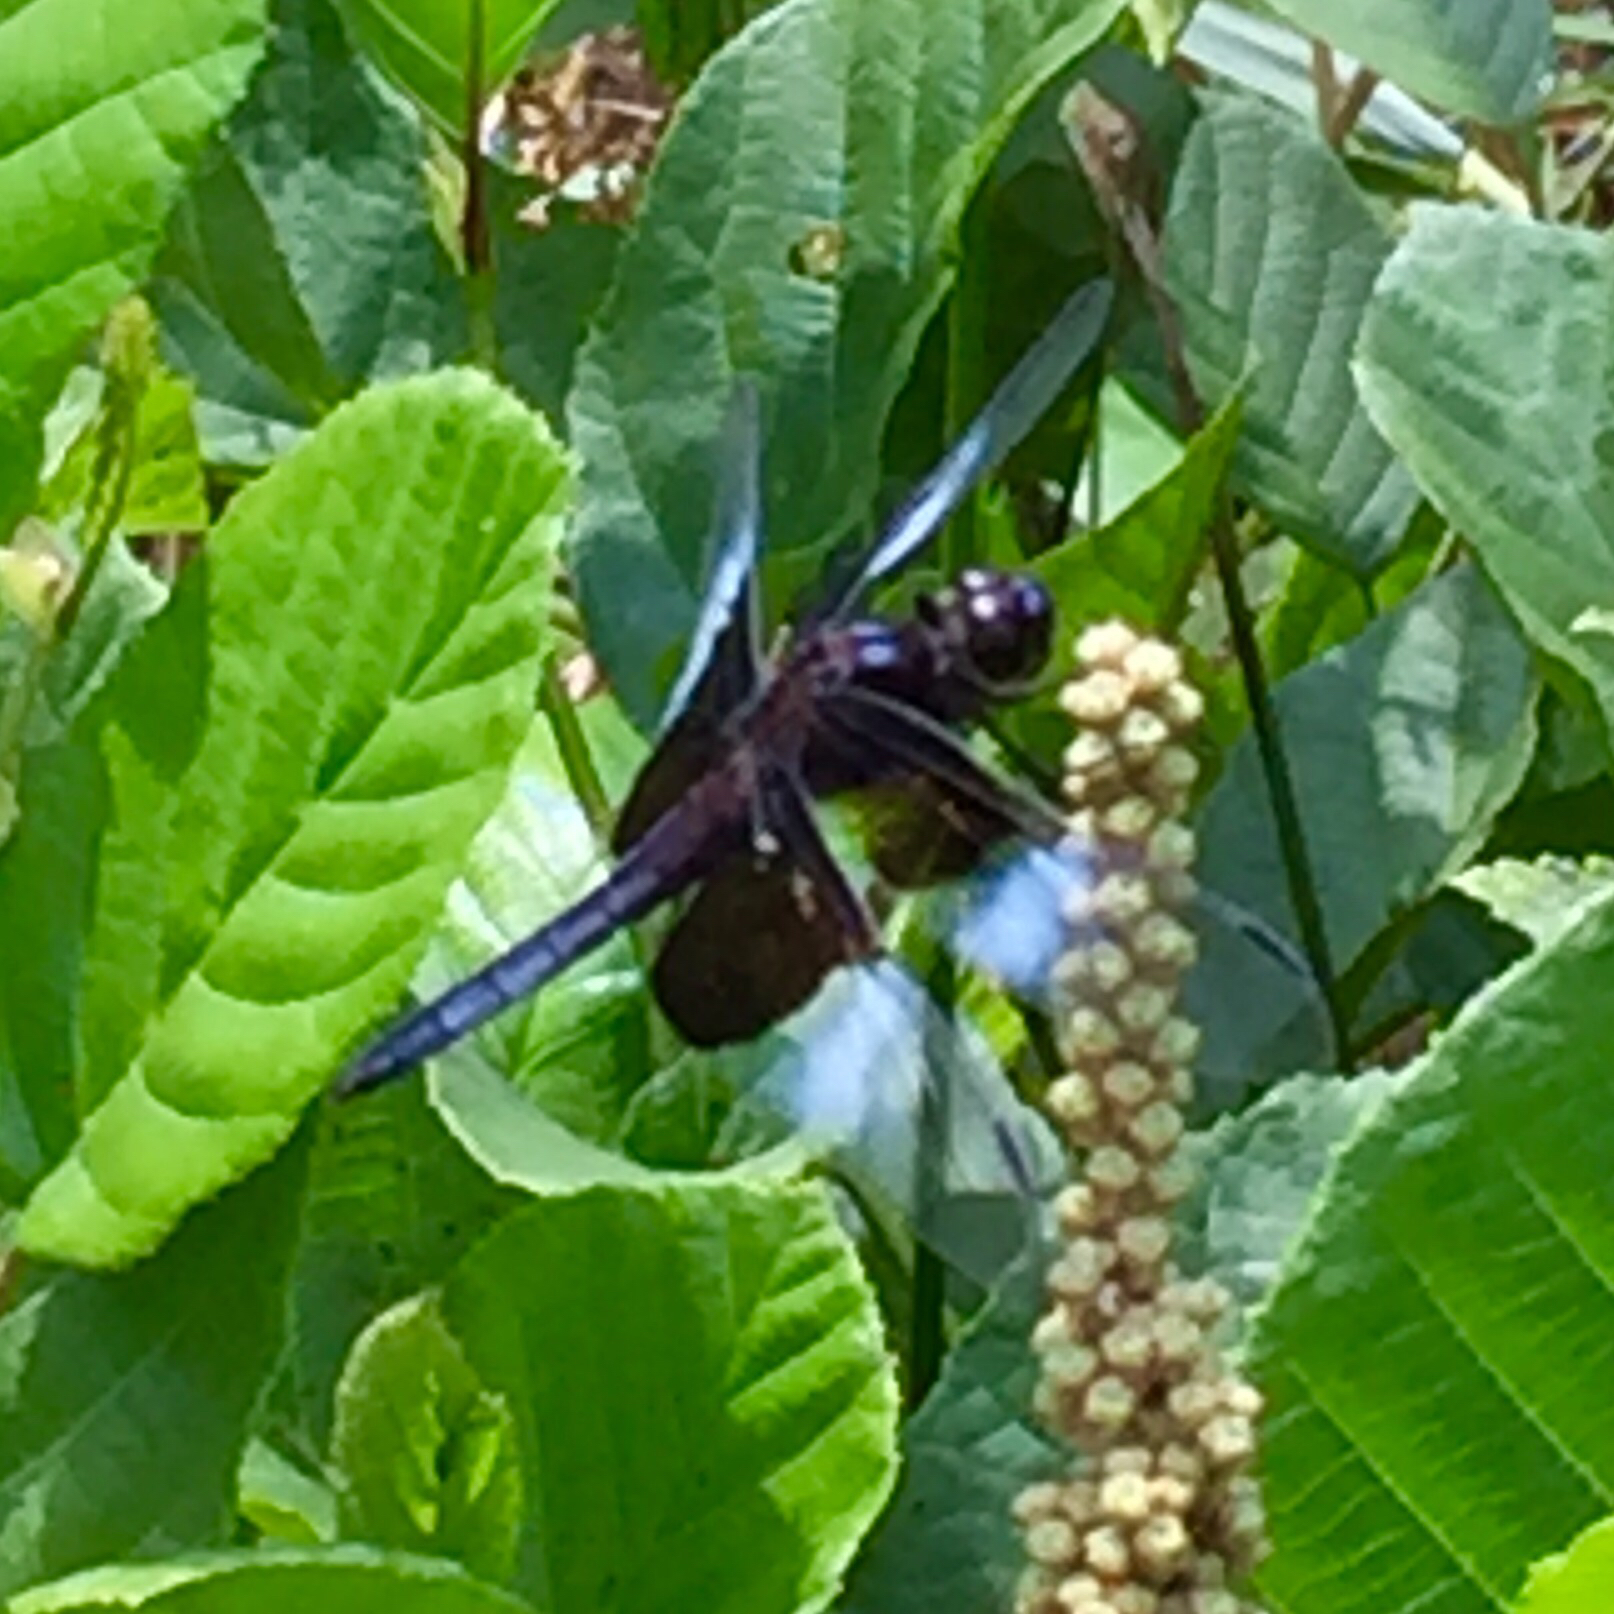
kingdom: Animalia
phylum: Arthropoda
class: Insecta
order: Odonata
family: Libellulidae
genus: Libellula
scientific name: Libellula luctuosa
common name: Widow skimmer
